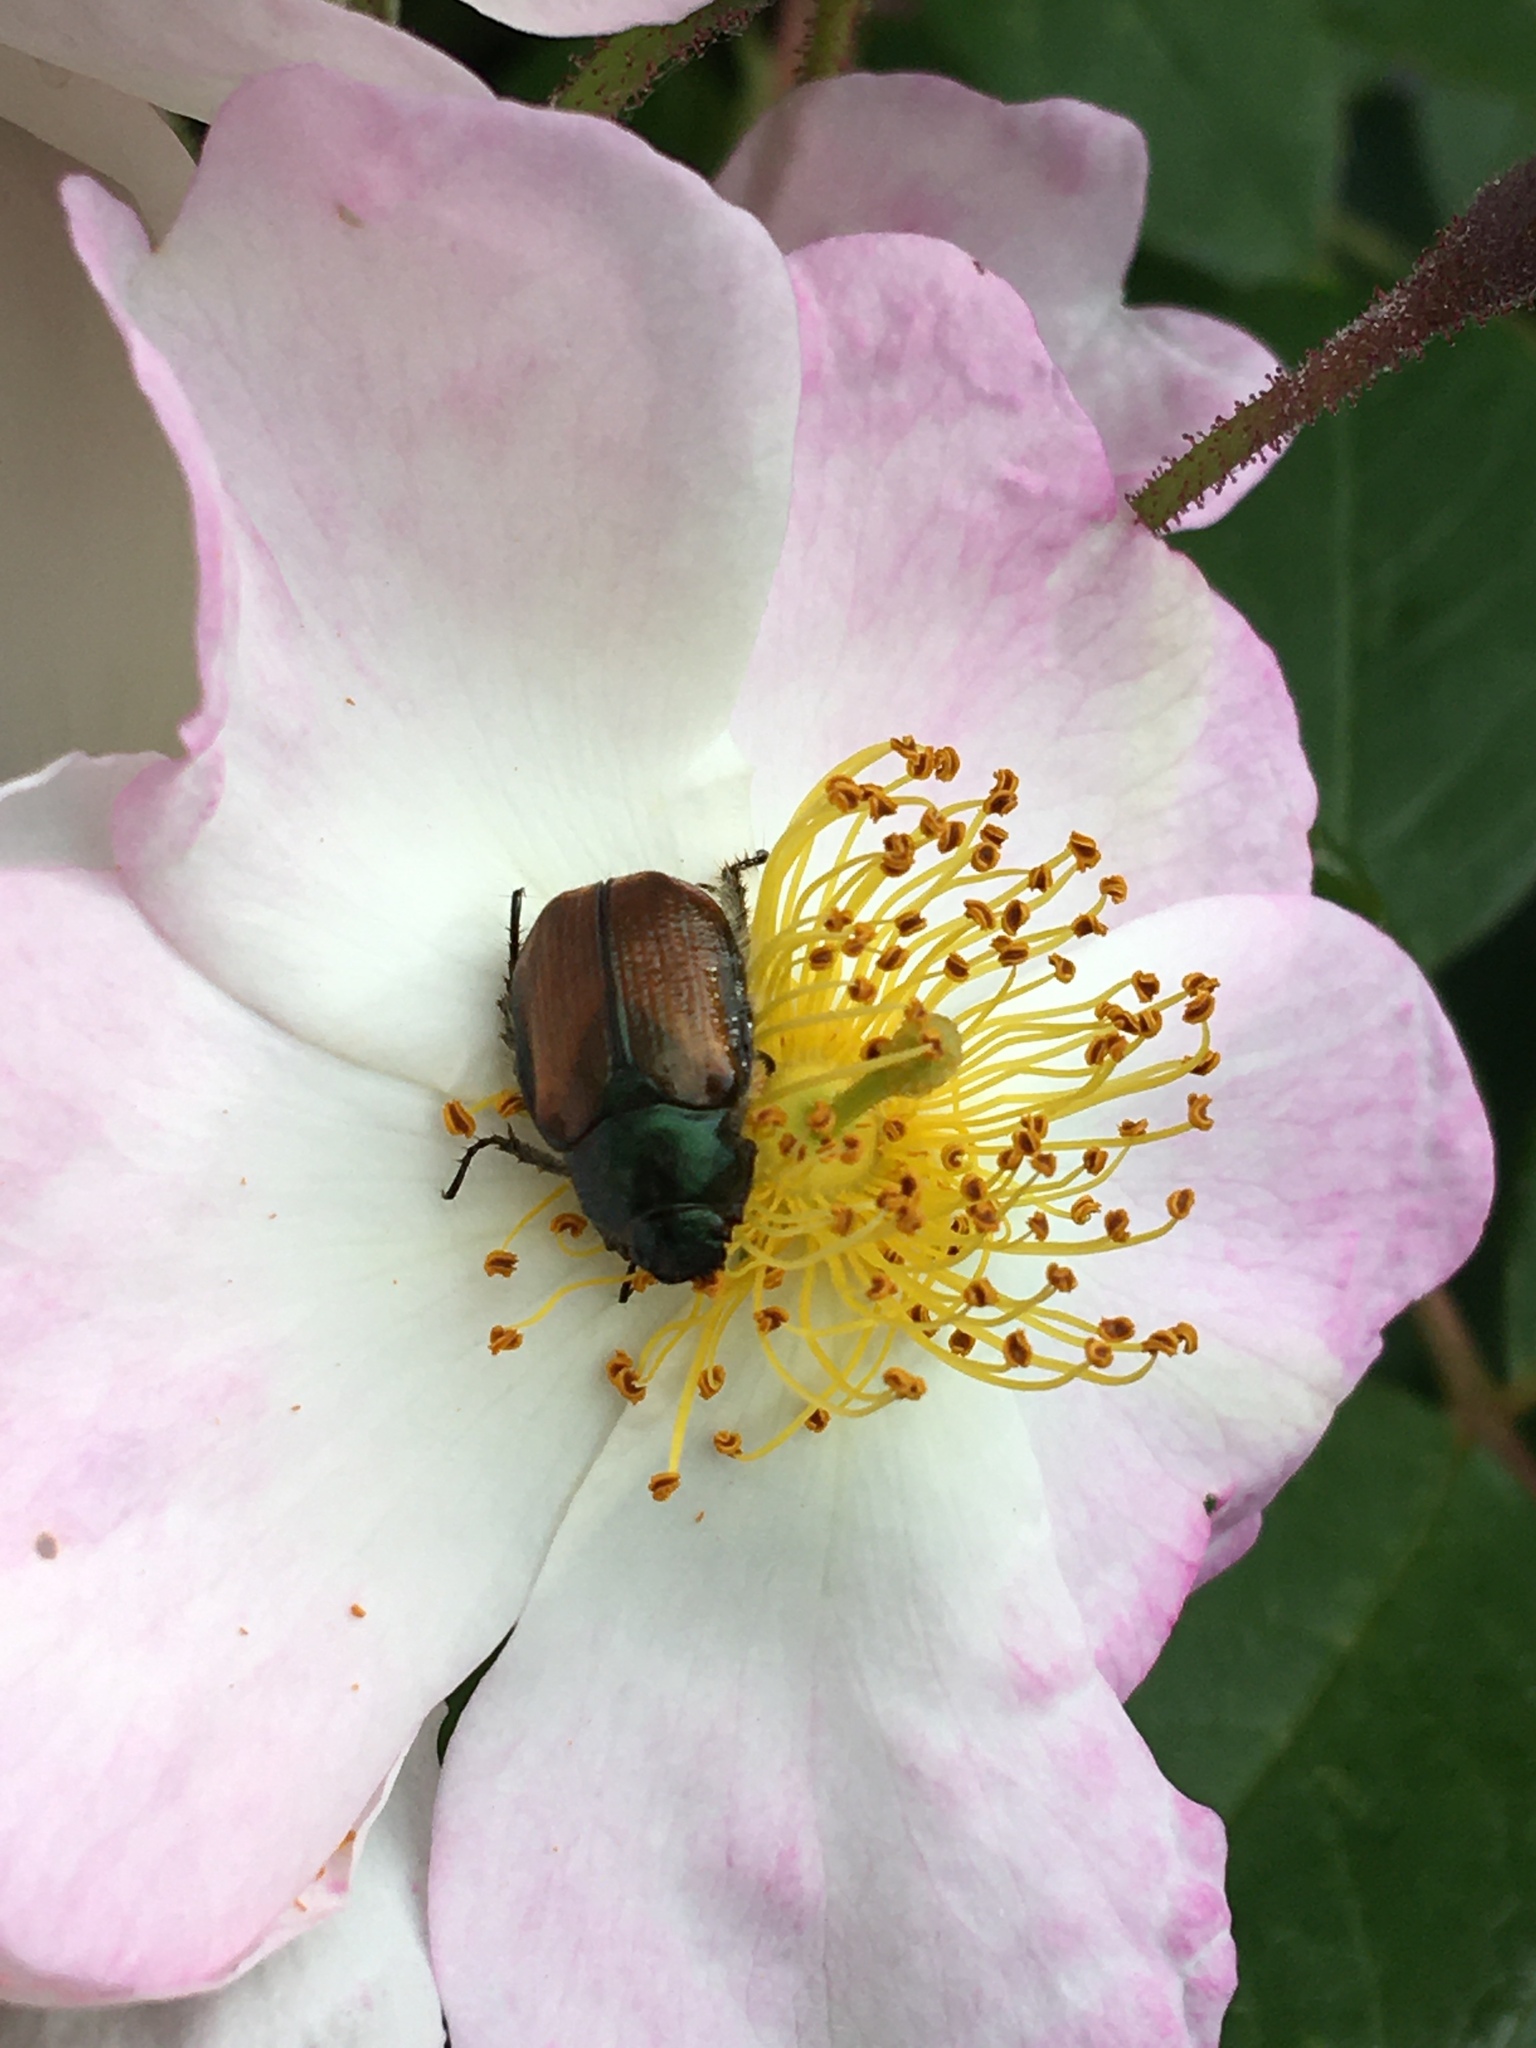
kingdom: Animalia
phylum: Arthropoda
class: Insecta
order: Coleoptera
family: Scarabaeidae
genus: Phyllopertha
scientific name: Phyllopertha horticola
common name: Garden chafer
